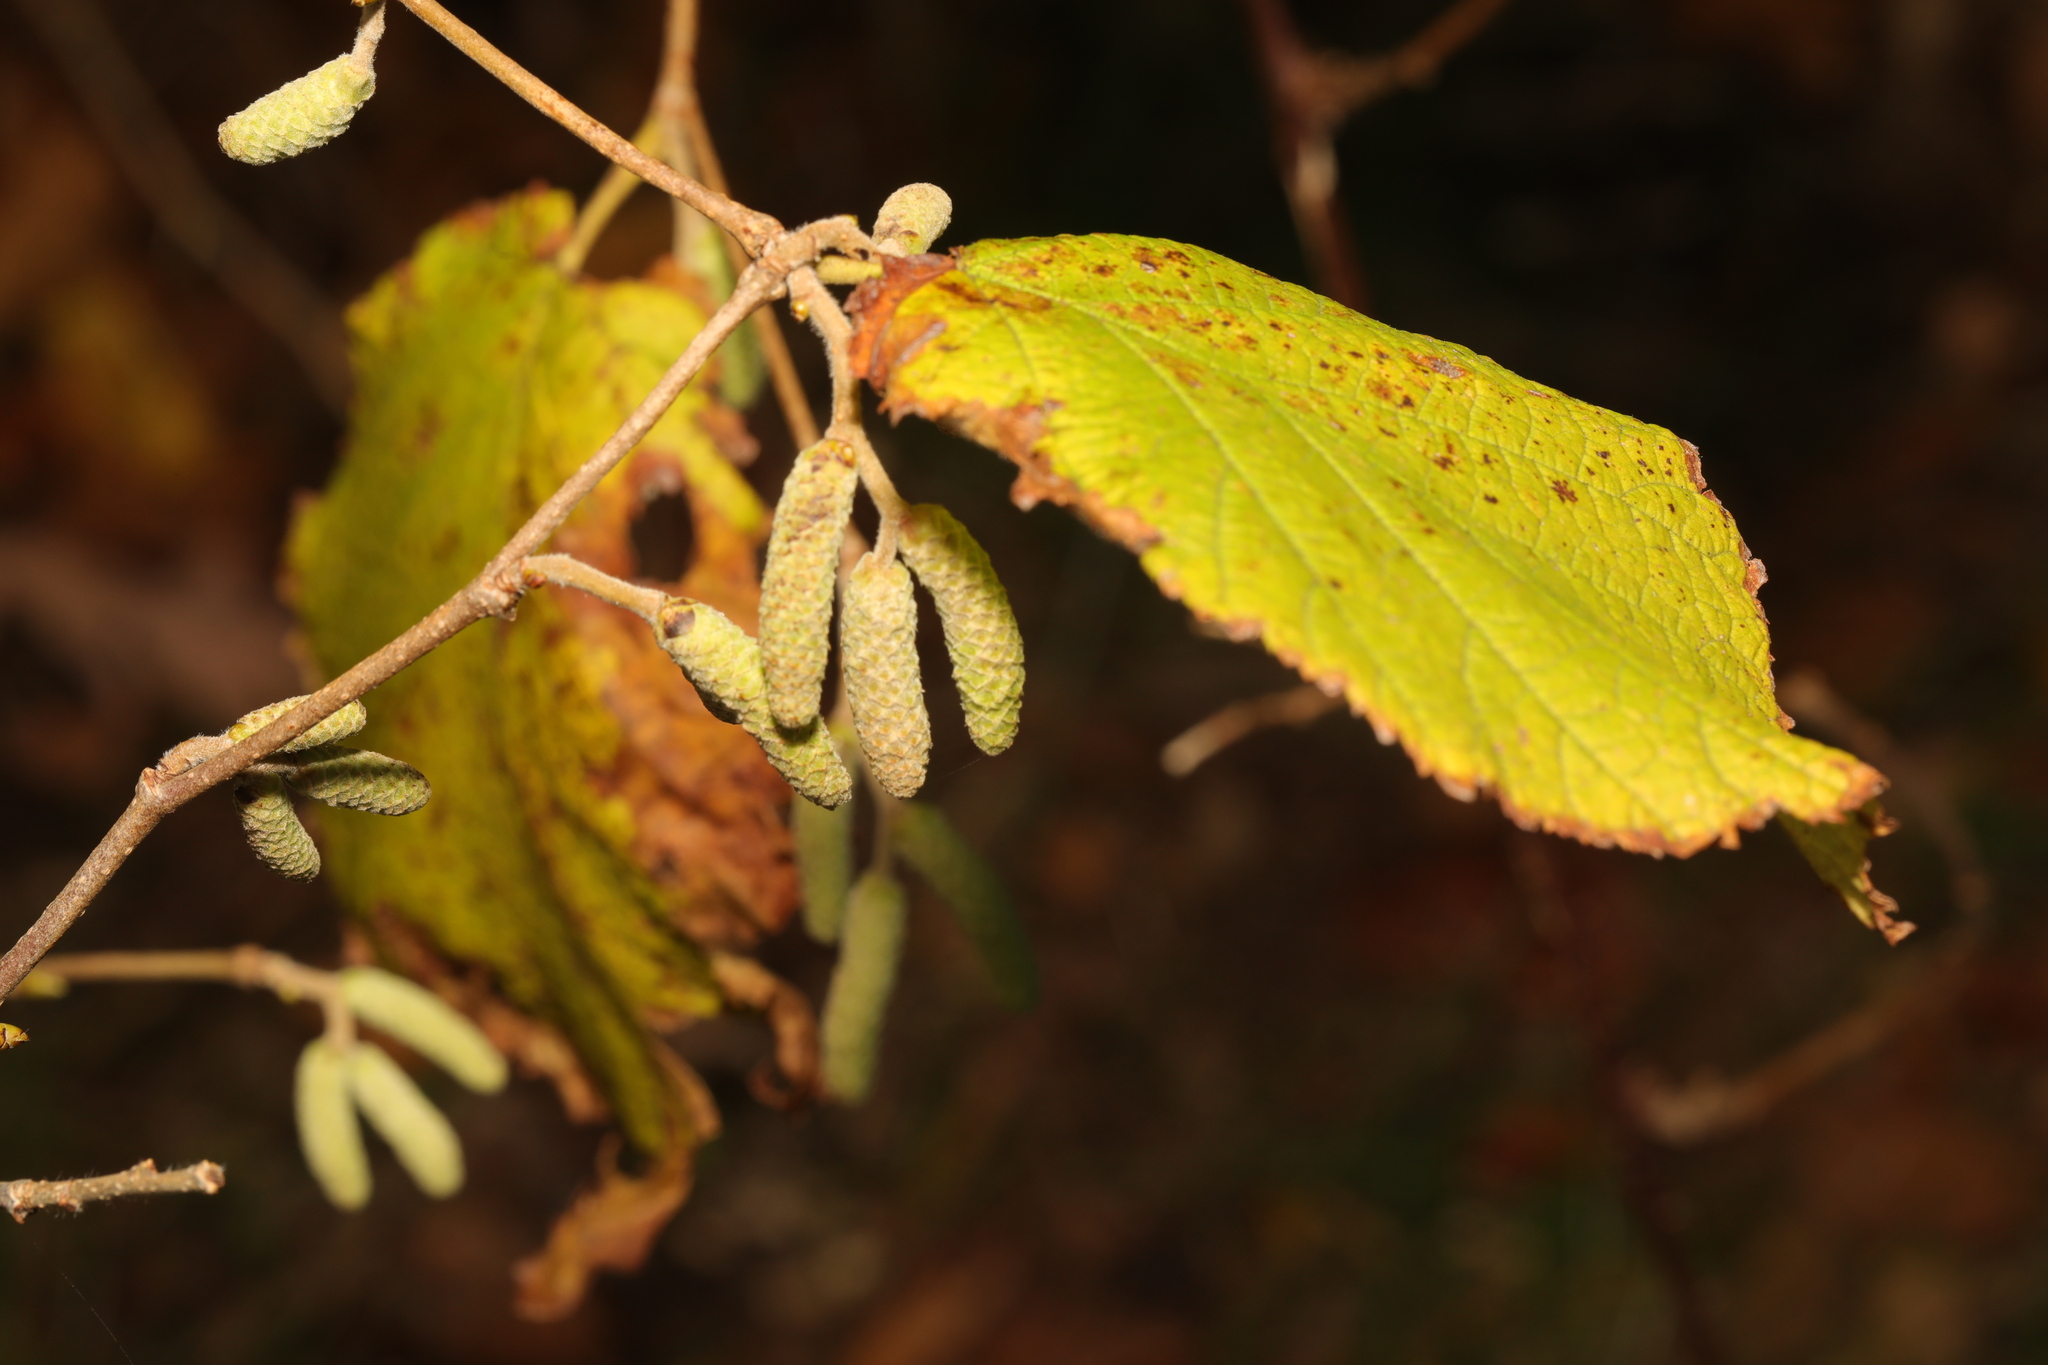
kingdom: Plantae
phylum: Tracheophyta
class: Magnoliopsida
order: Fagales
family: Betulaceae
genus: Corylus
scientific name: Corylus avellana
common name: European hazel
